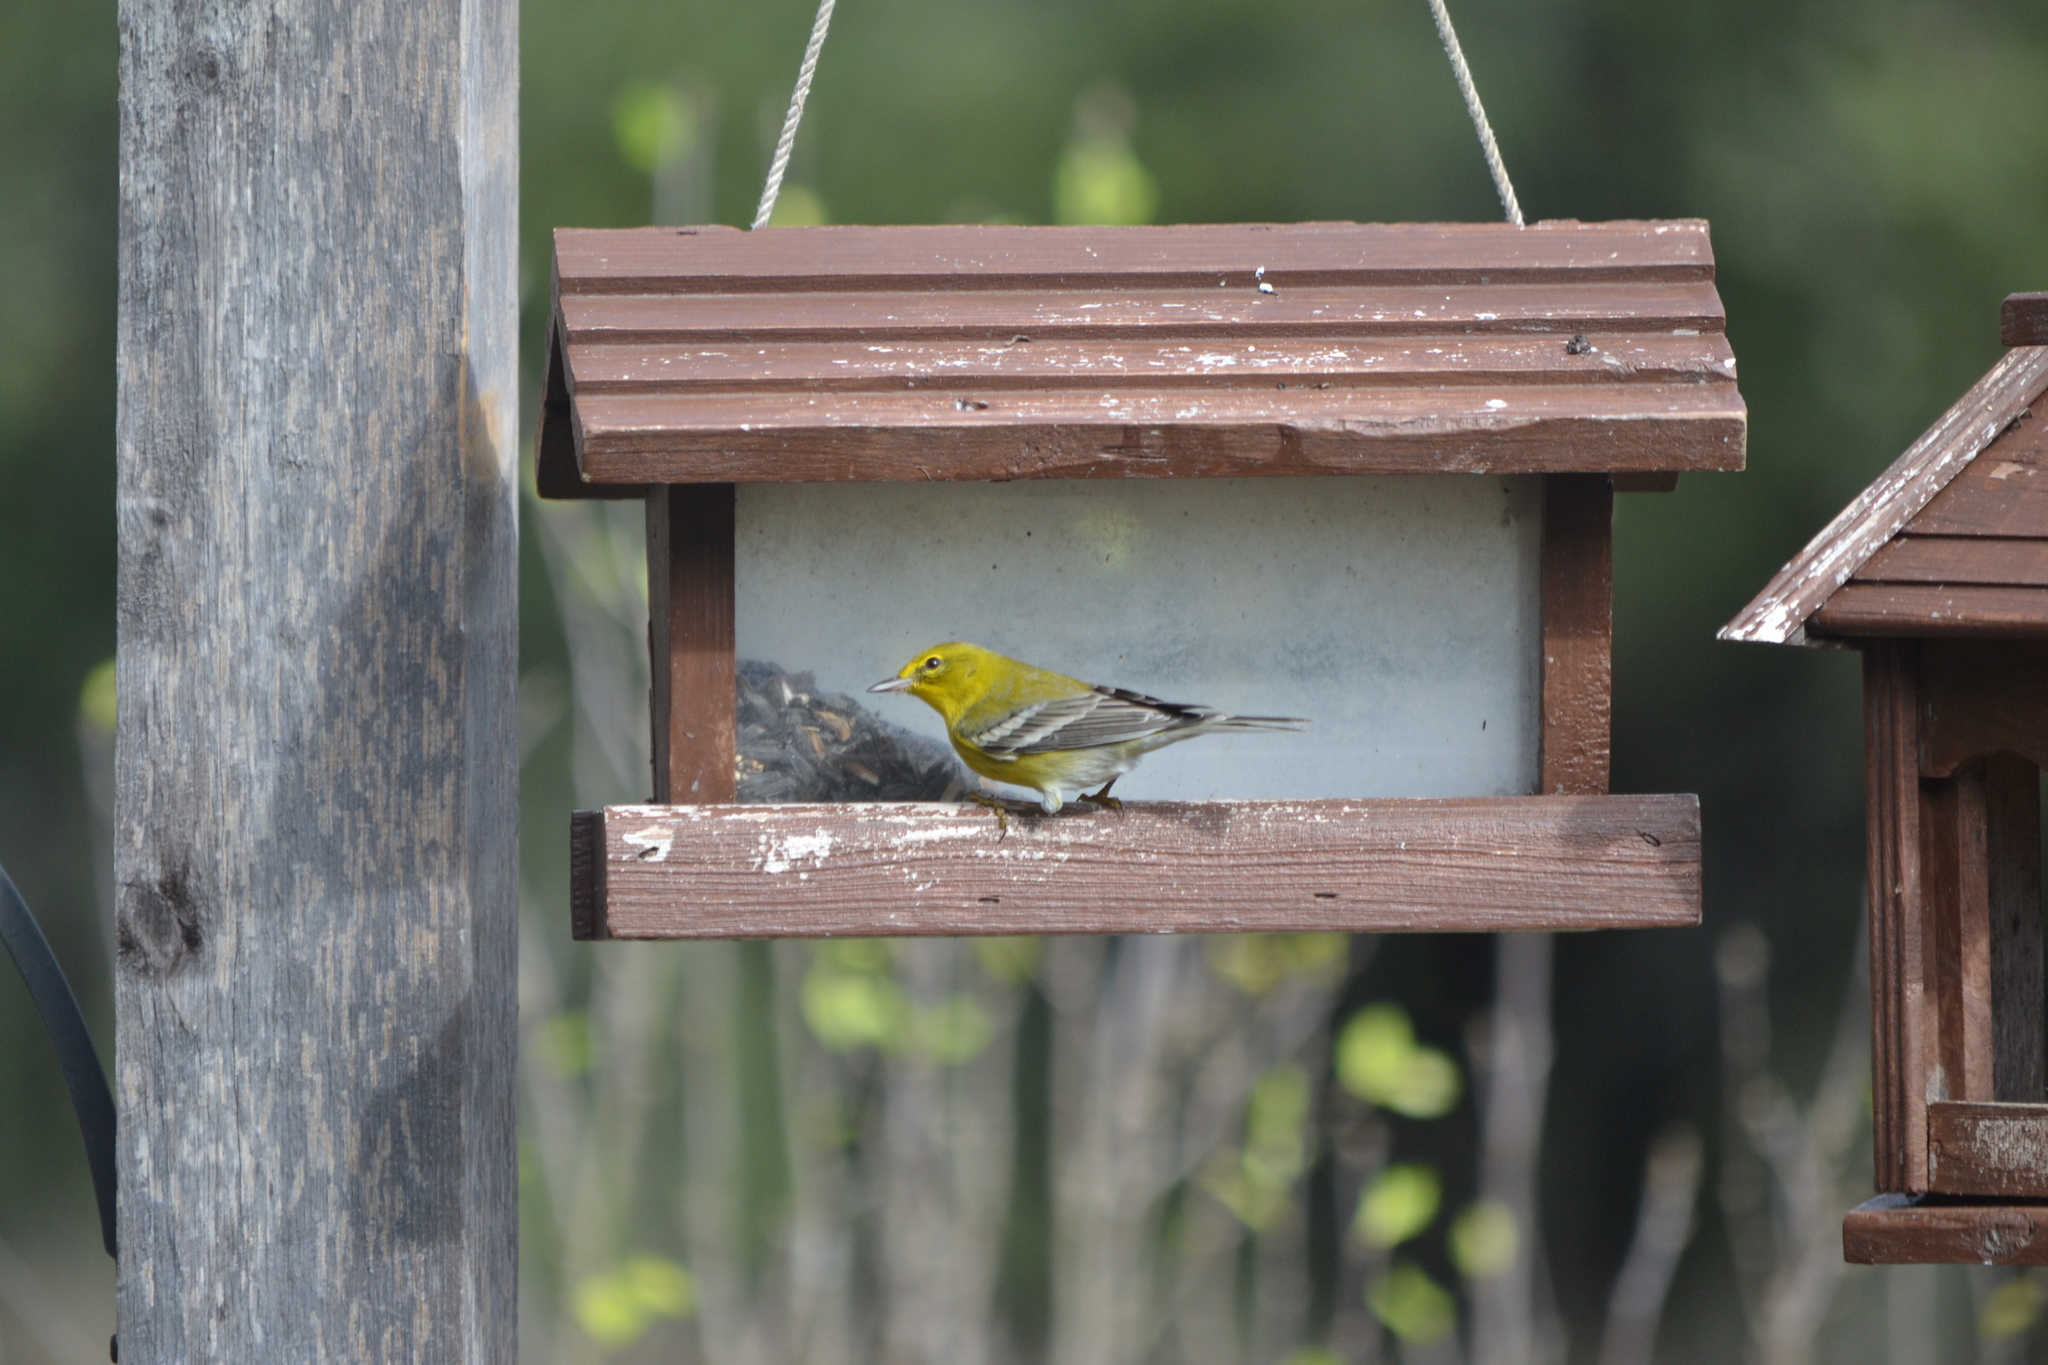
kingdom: Animalia
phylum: Chordata
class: Aves
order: Passeriformes
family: Parulidae
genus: Setophaga
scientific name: Setophaga pinus
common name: Pine warbler
